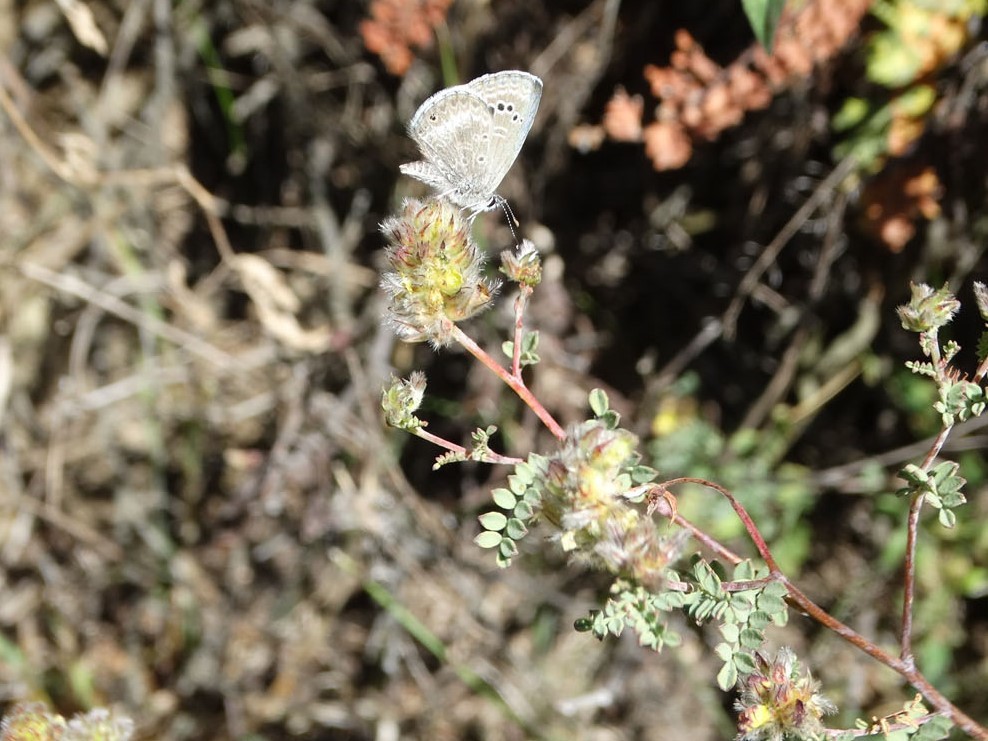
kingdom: Animalia
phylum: Arthropoda
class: Insecta
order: Lepidoptera
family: Lycaenidae
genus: Echinargus
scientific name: Echinargus isola
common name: Reakirt's blue
